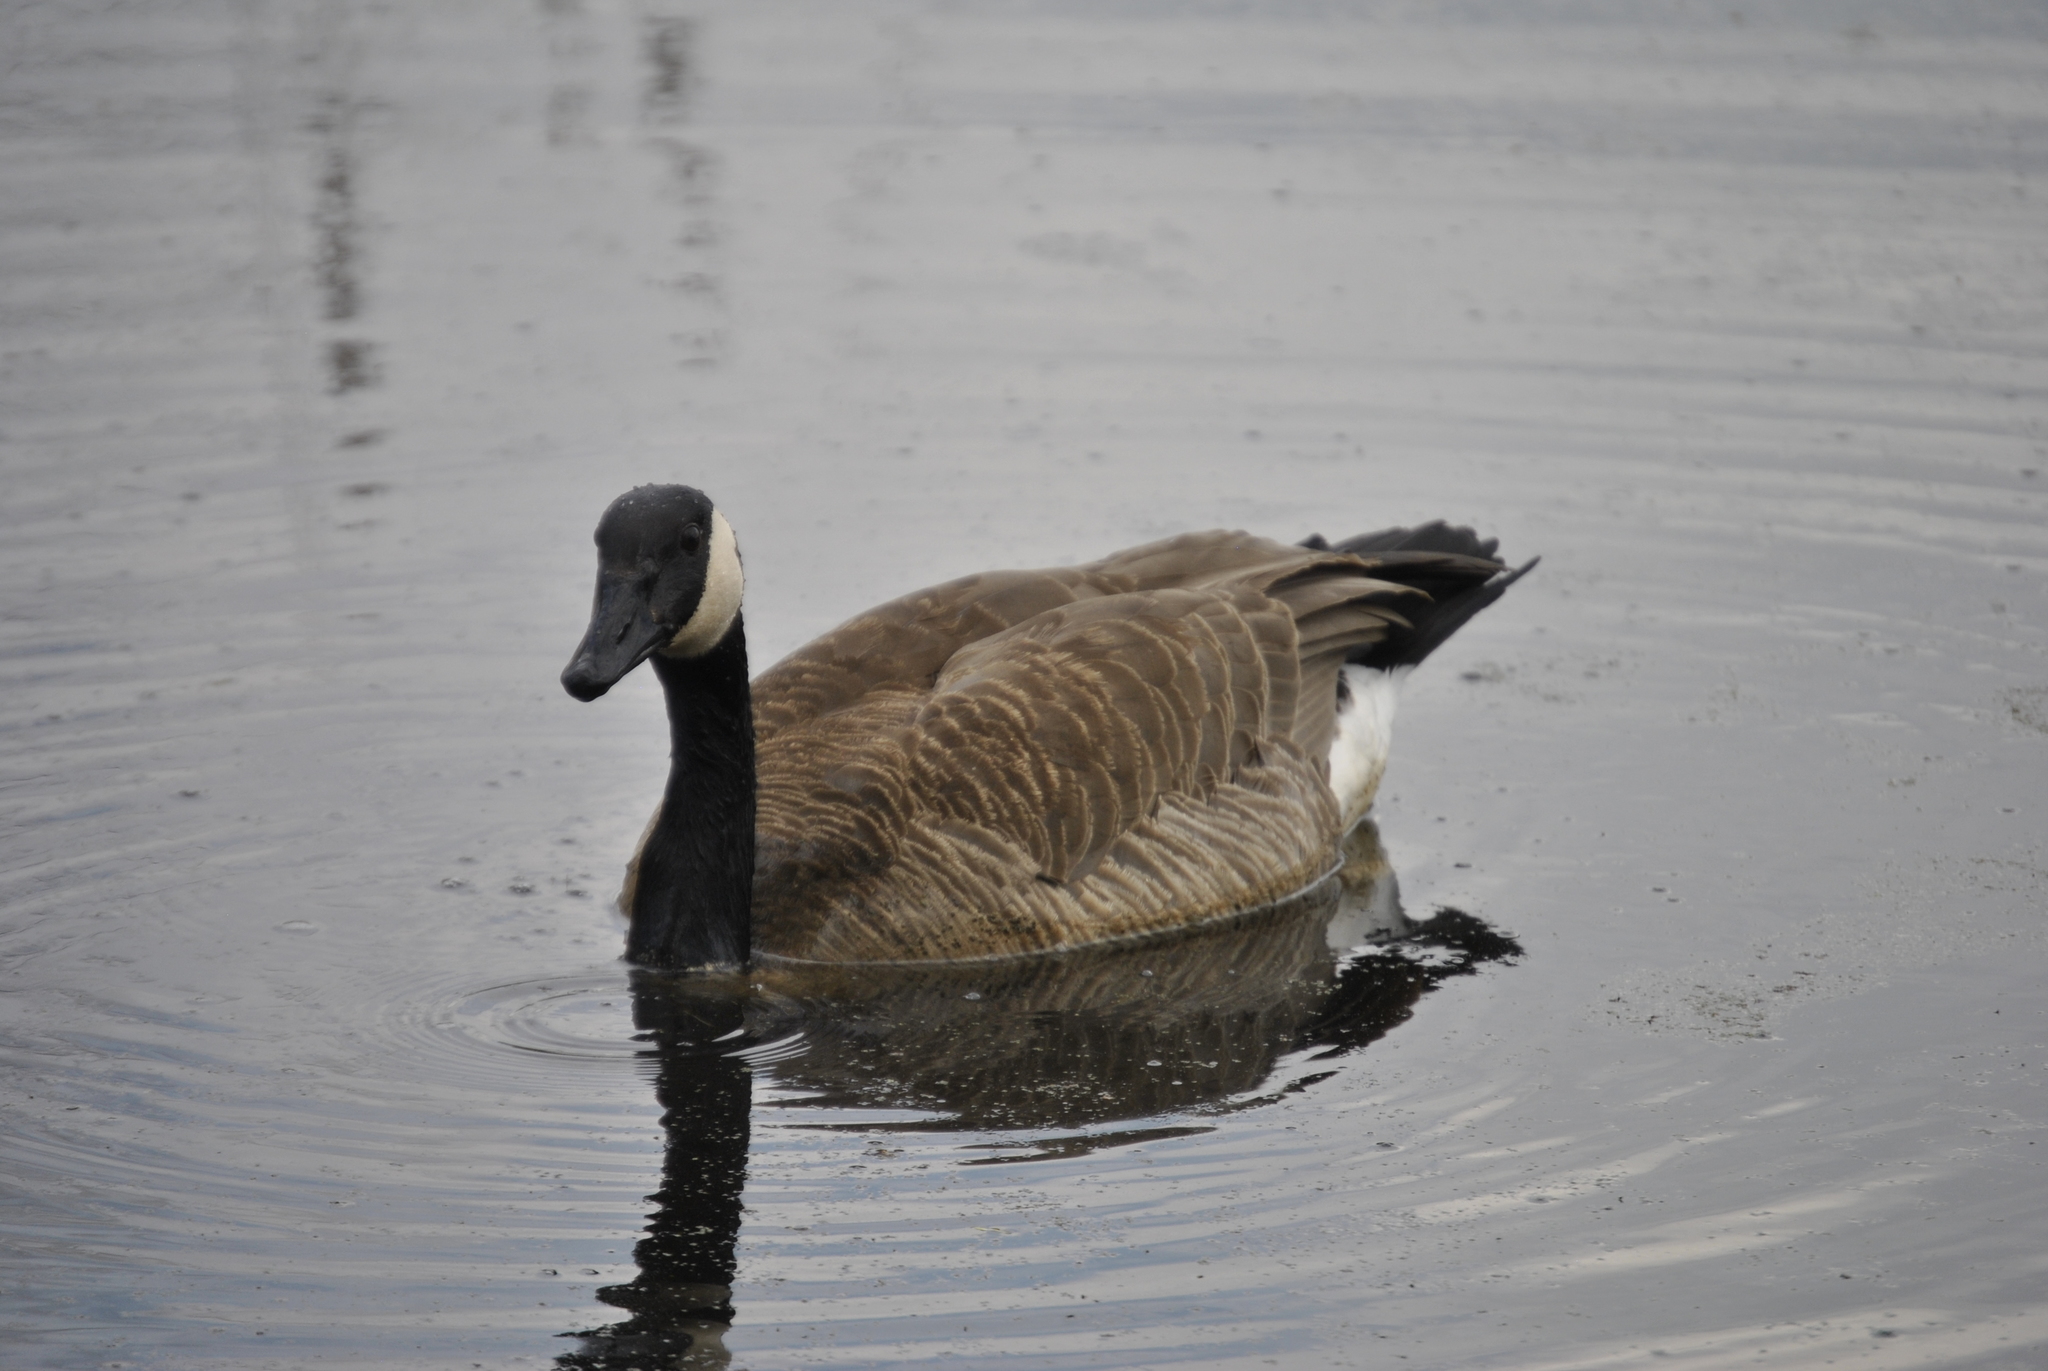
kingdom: Animalia
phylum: Chordata
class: Aves
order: Anseriformes
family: Anatidae
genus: Branta
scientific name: Branta canadensis
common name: Canada goose
